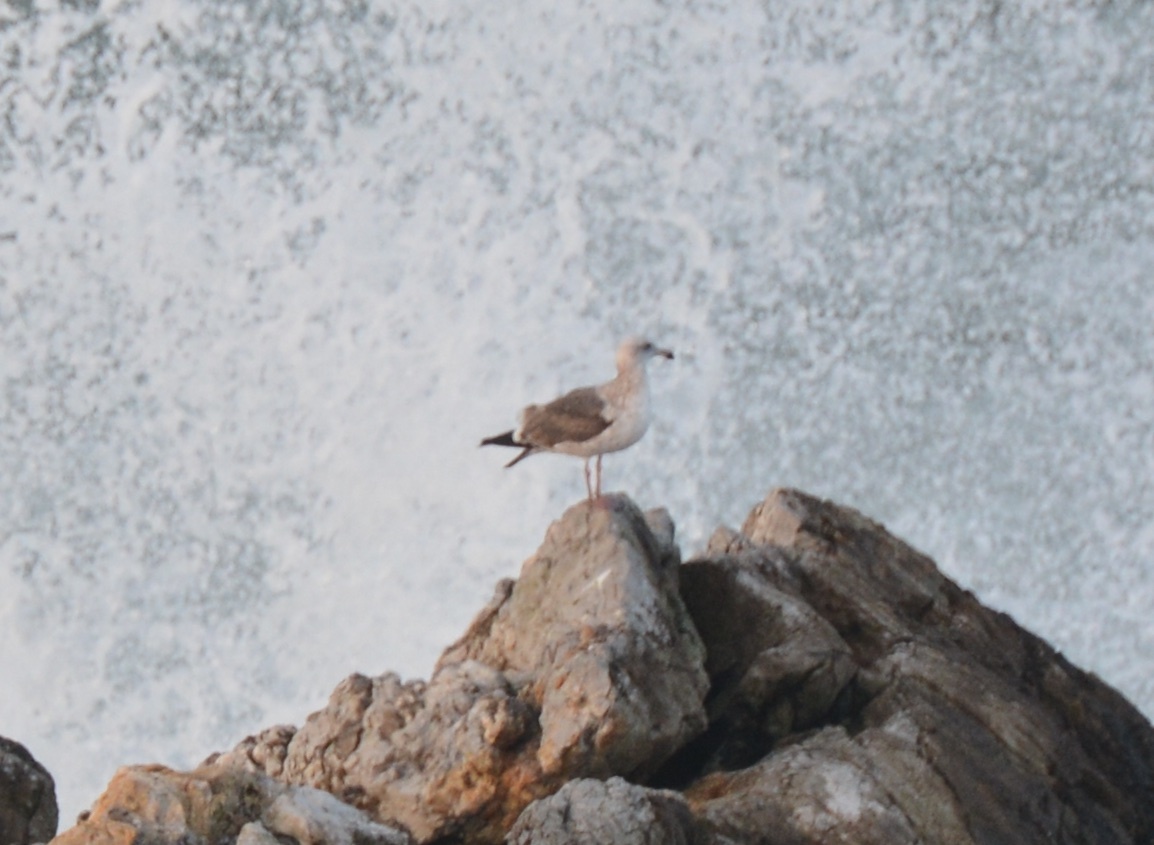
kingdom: Animalia
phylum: Chordata
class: Aves
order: Charadriiformes
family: Laridae
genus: Larus
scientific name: Larus occidentalis
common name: Western gull
